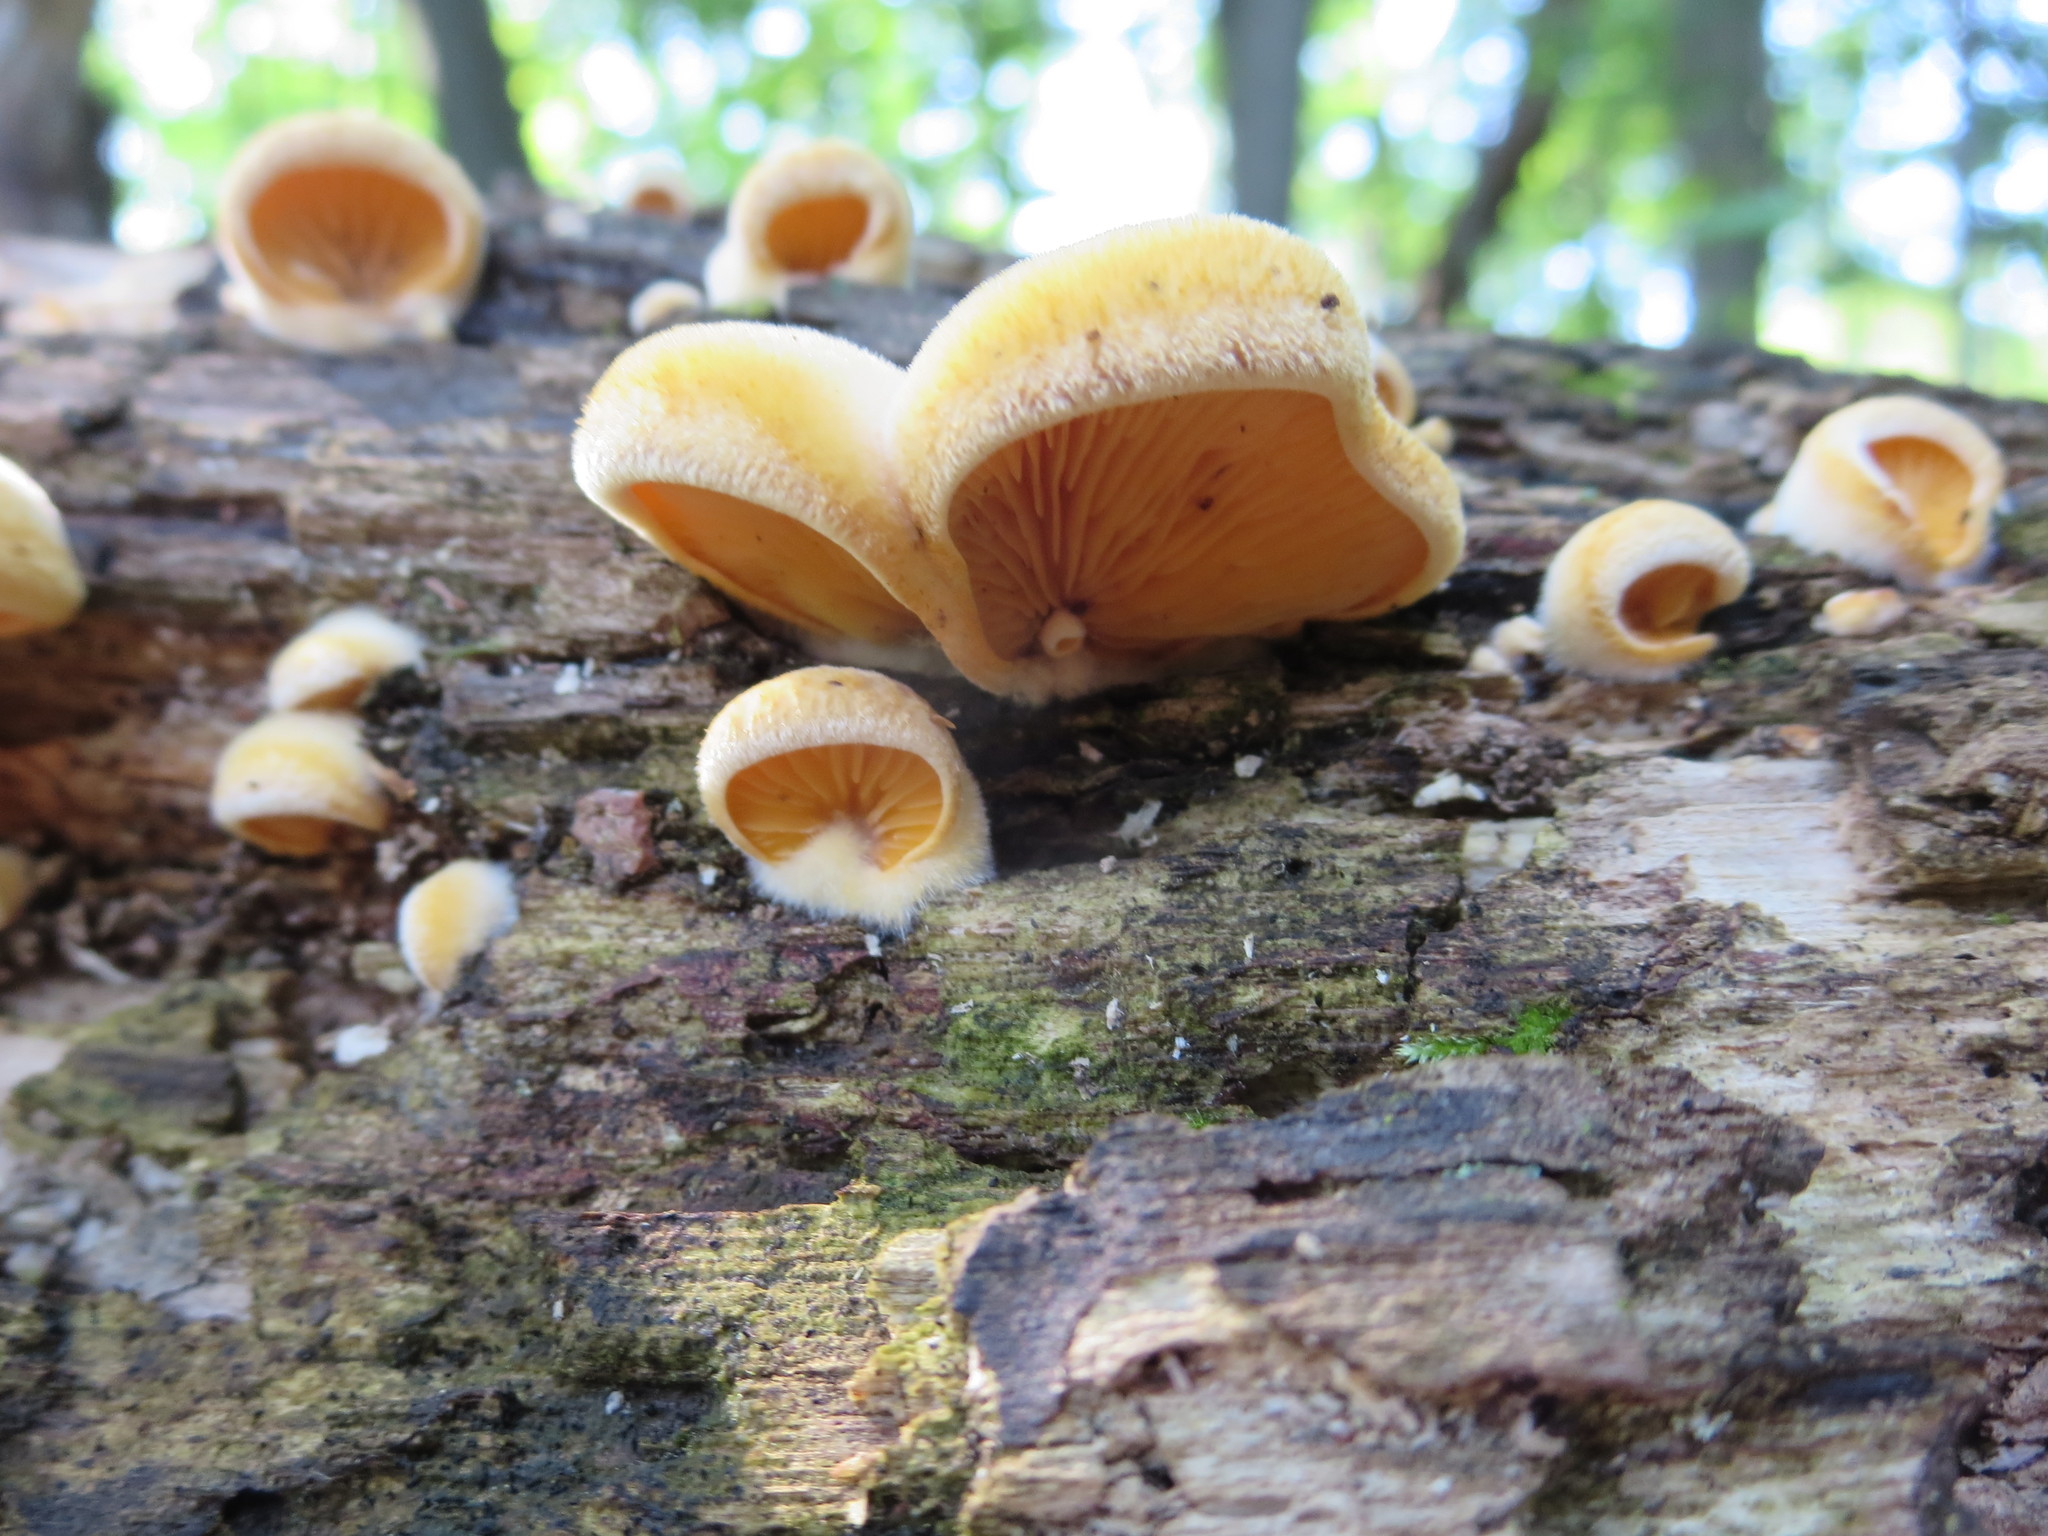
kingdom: Fungi
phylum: Basidiomycota
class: Agaricomycetes
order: Agaricales
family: Phyllotopsidaceae
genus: Phyllotopsis
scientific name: Phyllotopsis nidulans
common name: Orange mock oyster
